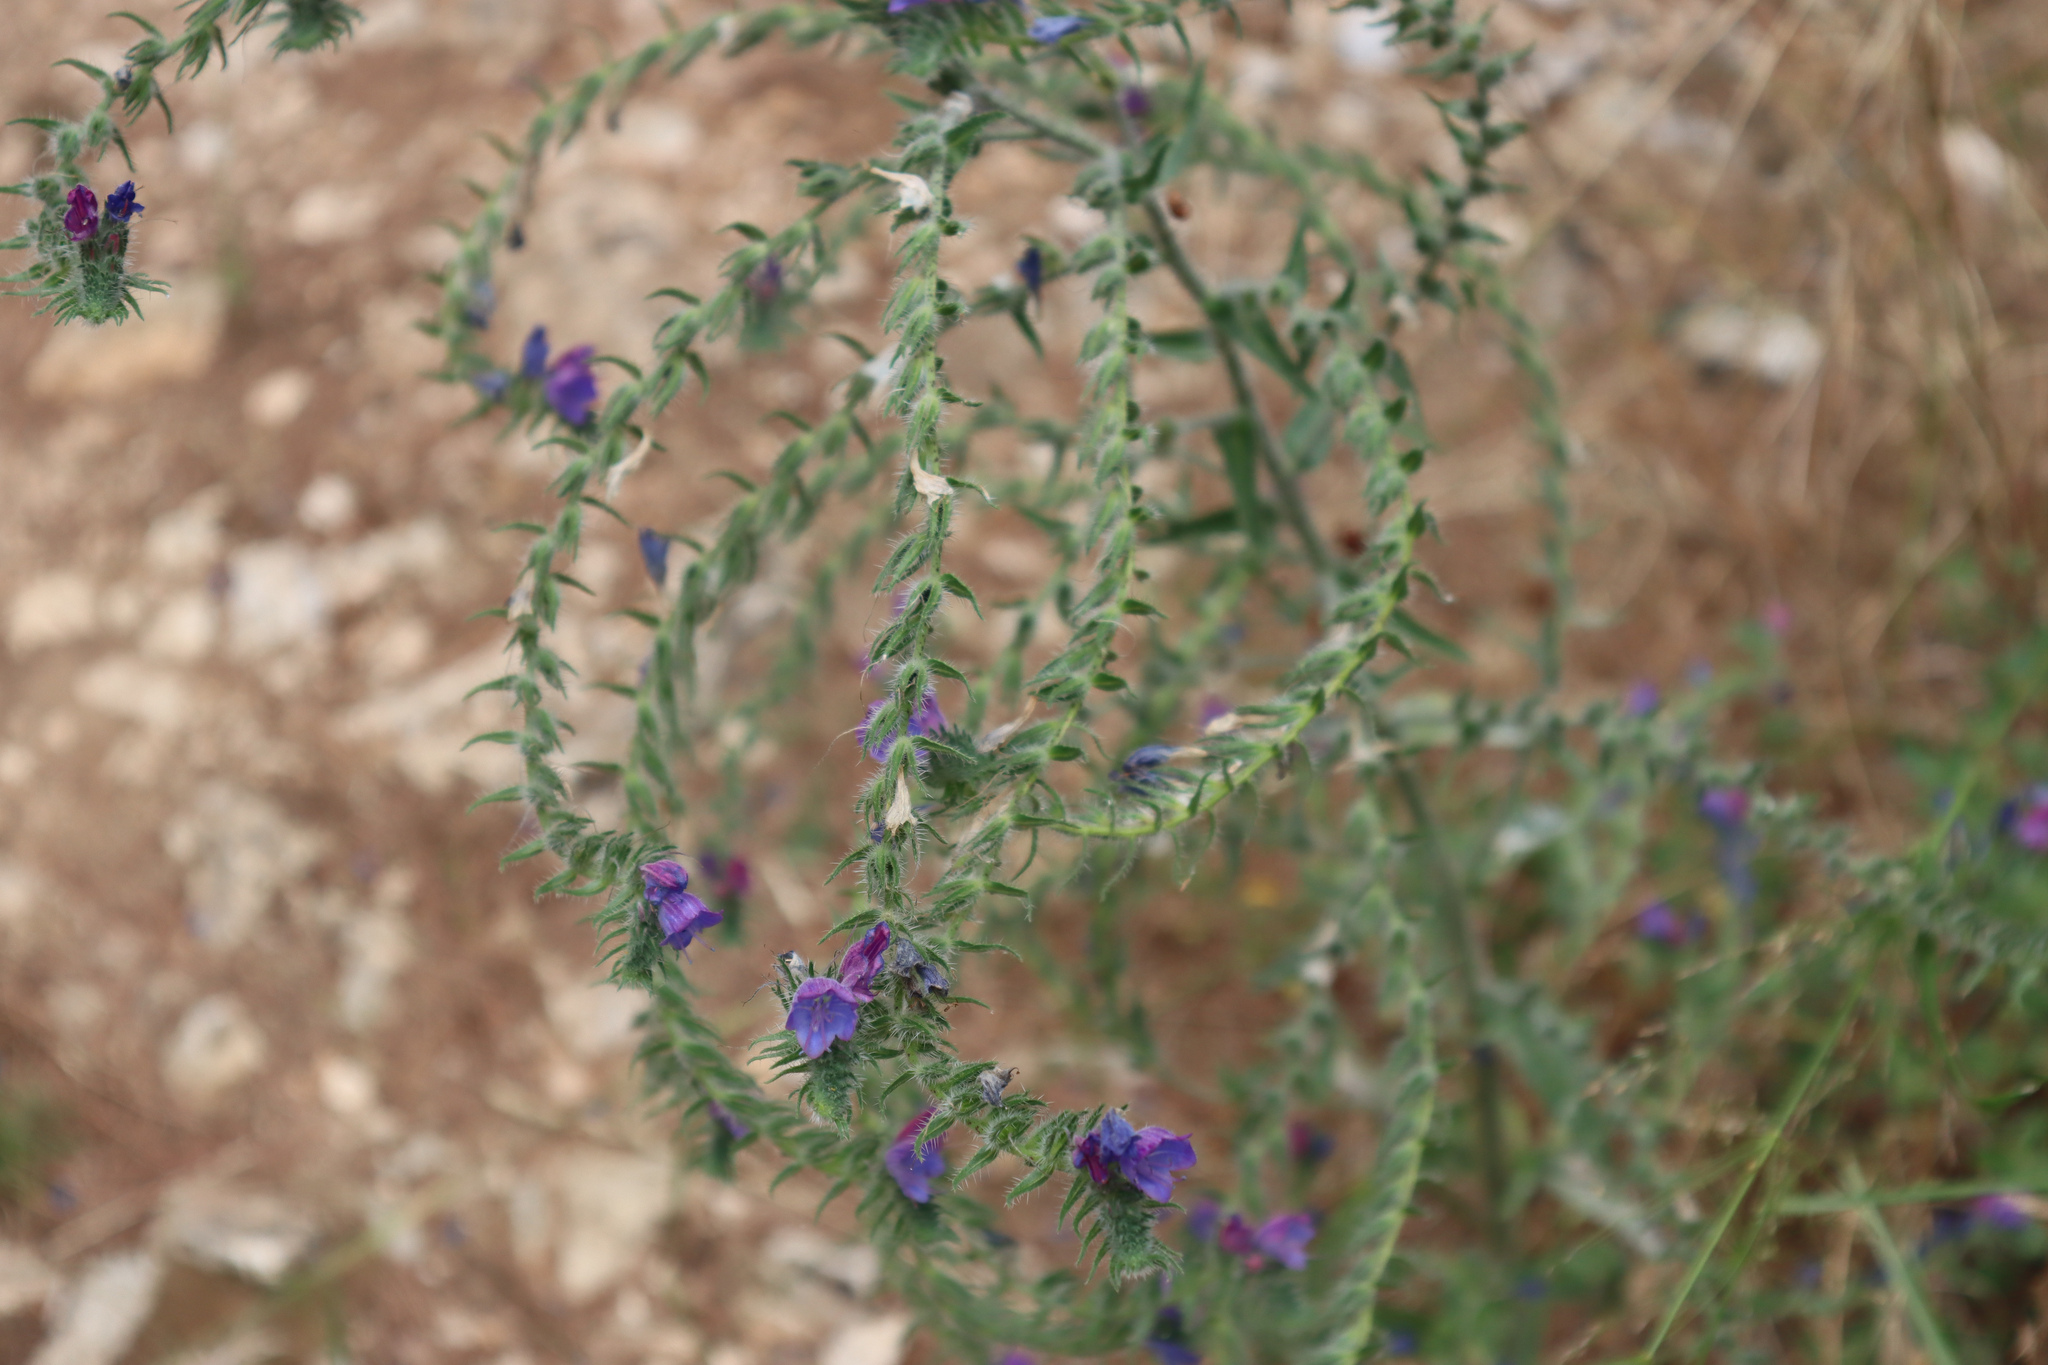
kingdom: Plantae
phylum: Tracheophyta
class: Magnoliopsida
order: Boraginales
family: Boraginaceae
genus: Echium
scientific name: Echium vulgare
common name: Common viper's bugloss
